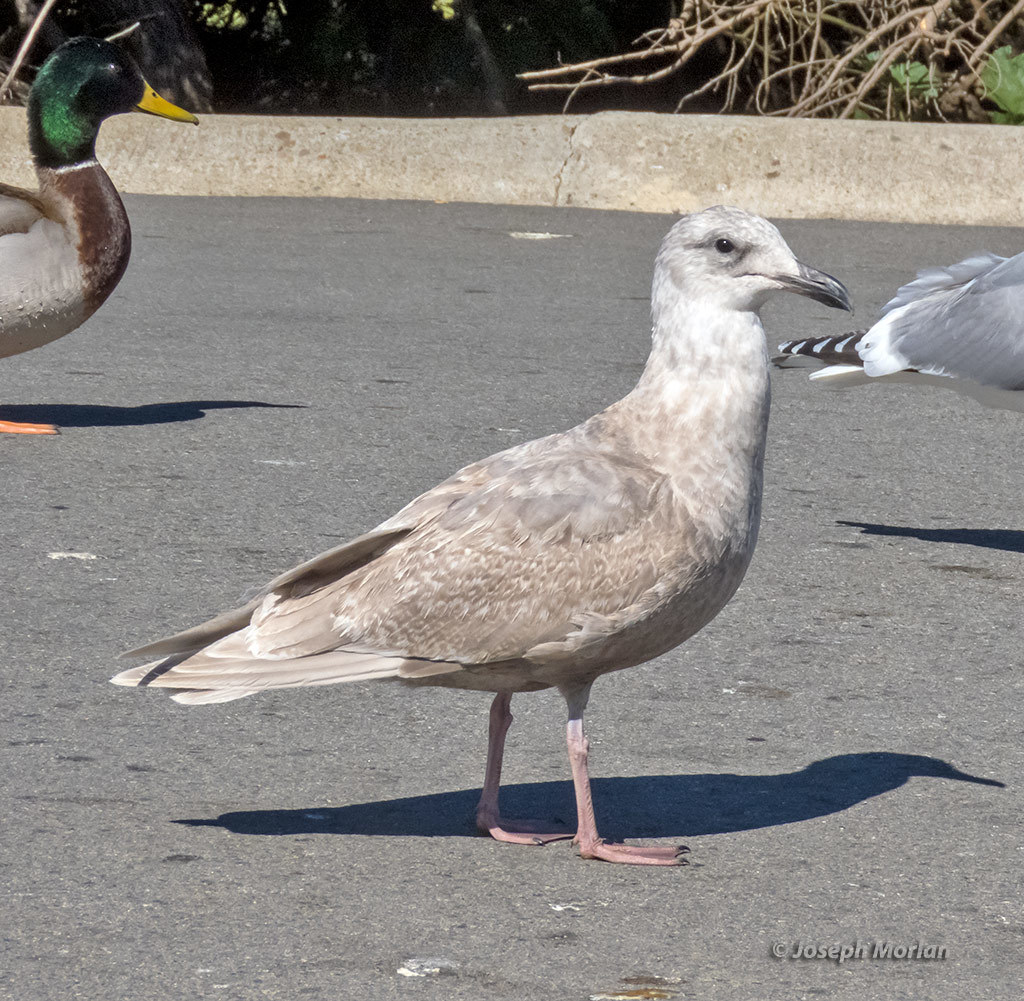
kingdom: Animalia
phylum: Chordata
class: Aves
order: Charadriiformes
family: Laridae
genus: Larus
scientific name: Larus glaucescens
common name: Glaucous-winged gull
